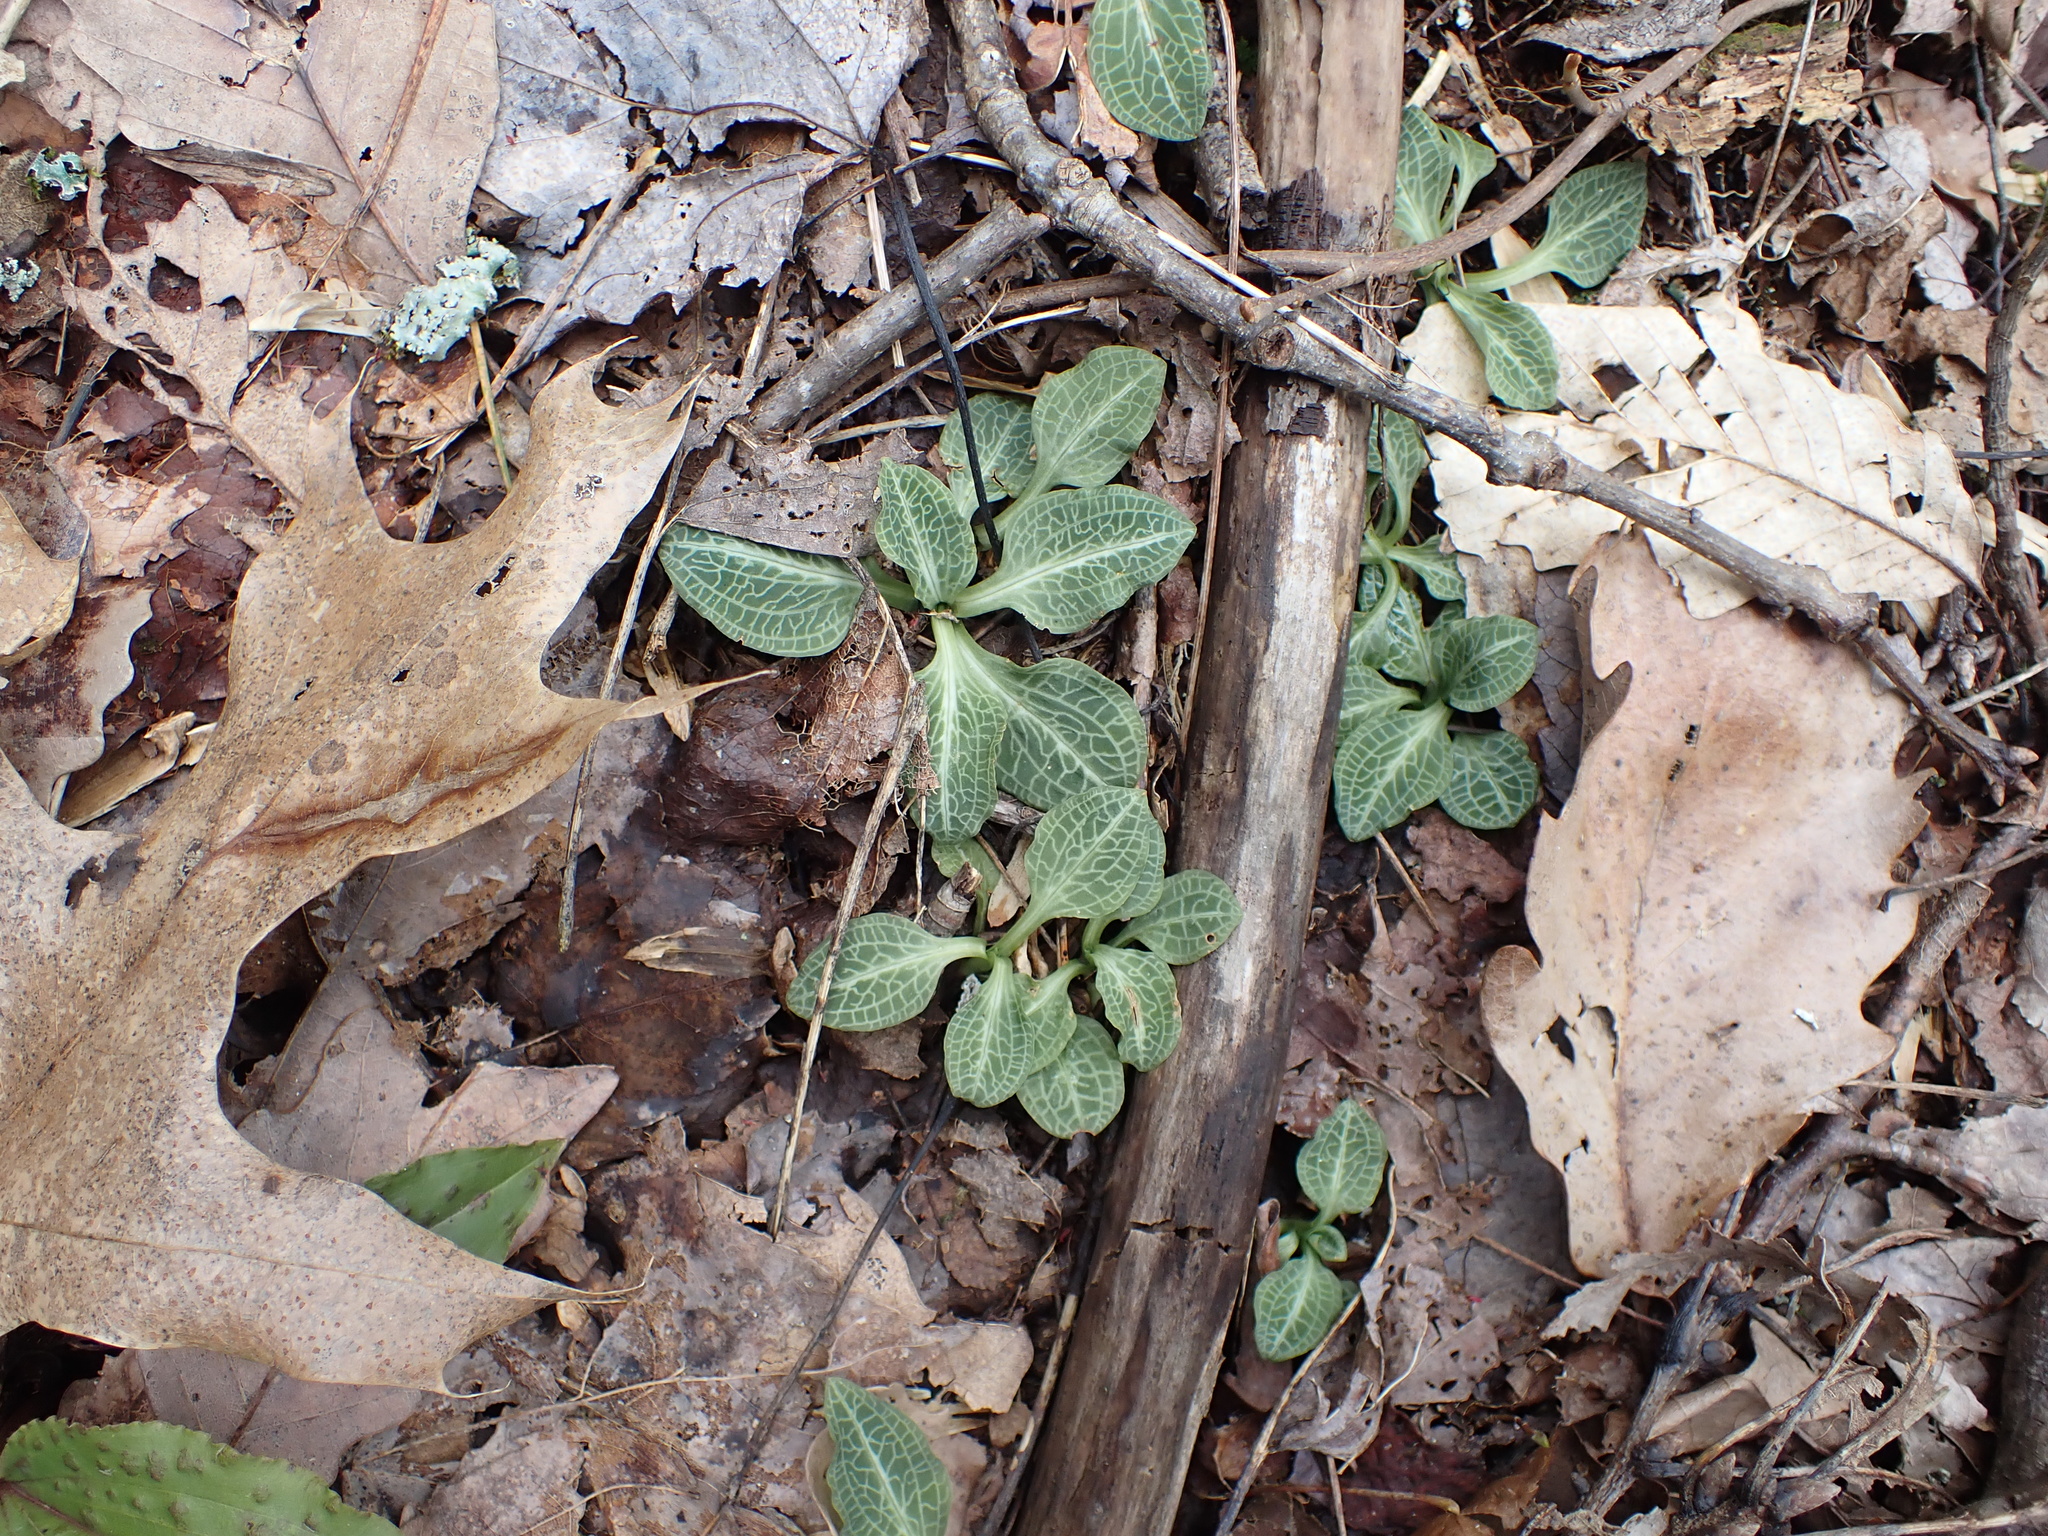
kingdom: Plantae
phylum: Tracheophyta
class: Liliopsida
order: Asparagales
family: Orchidaceae
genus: Goodyera
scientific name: Goodyera pubescens
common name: Downy rattlesnake-plantain
